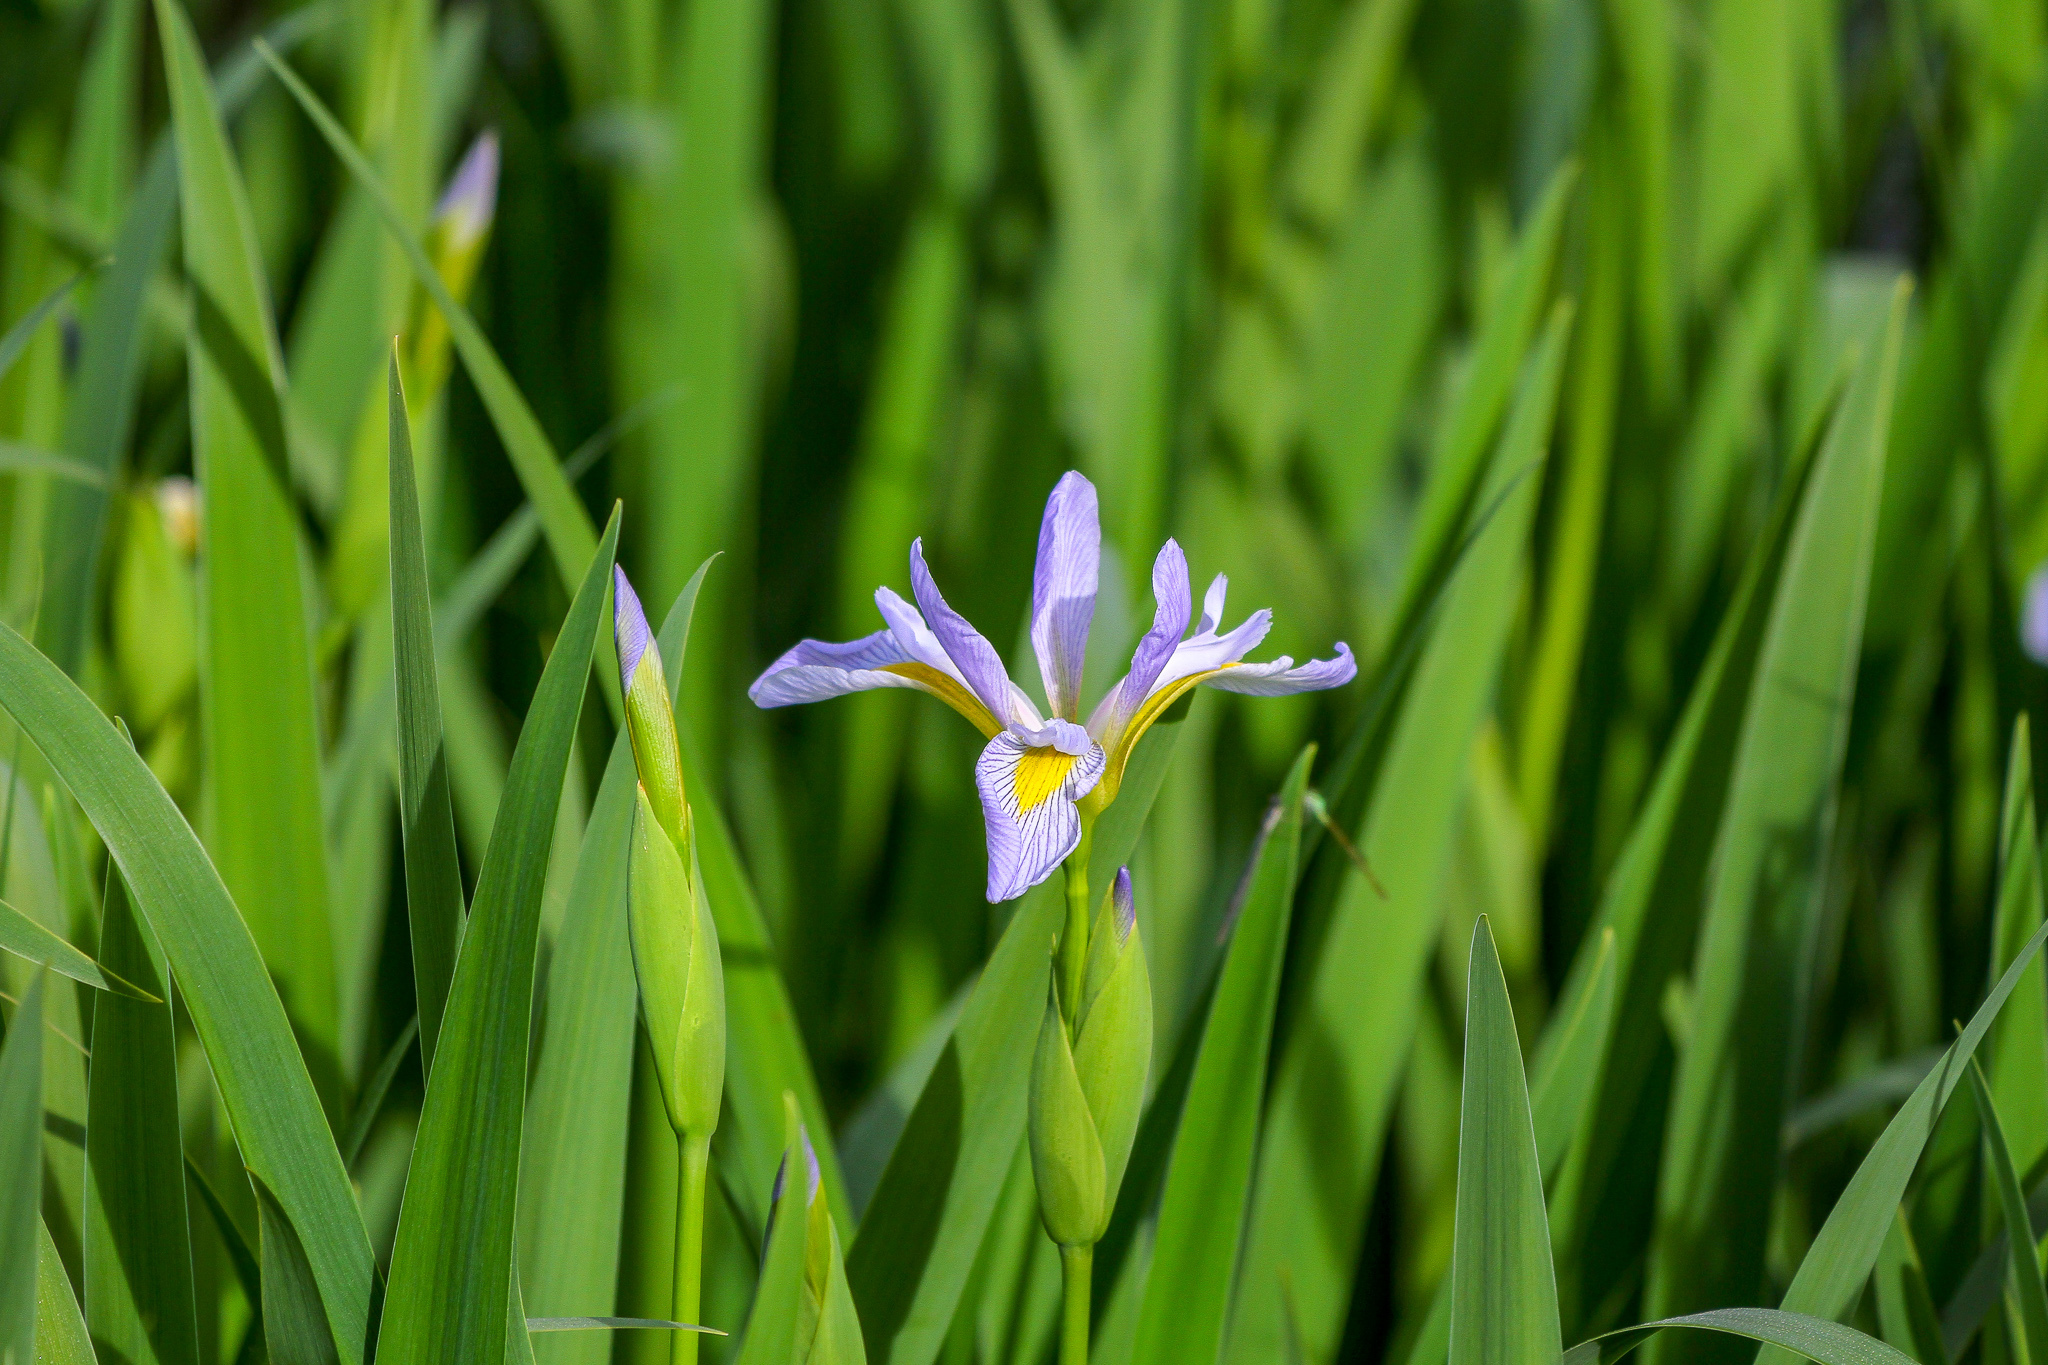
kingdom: Plantae
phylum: Tracheophyta
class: Liliopsida
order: Asparagales
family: Iridaceae
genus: Iris
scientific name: Iris virginica
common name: Southern blue flag
